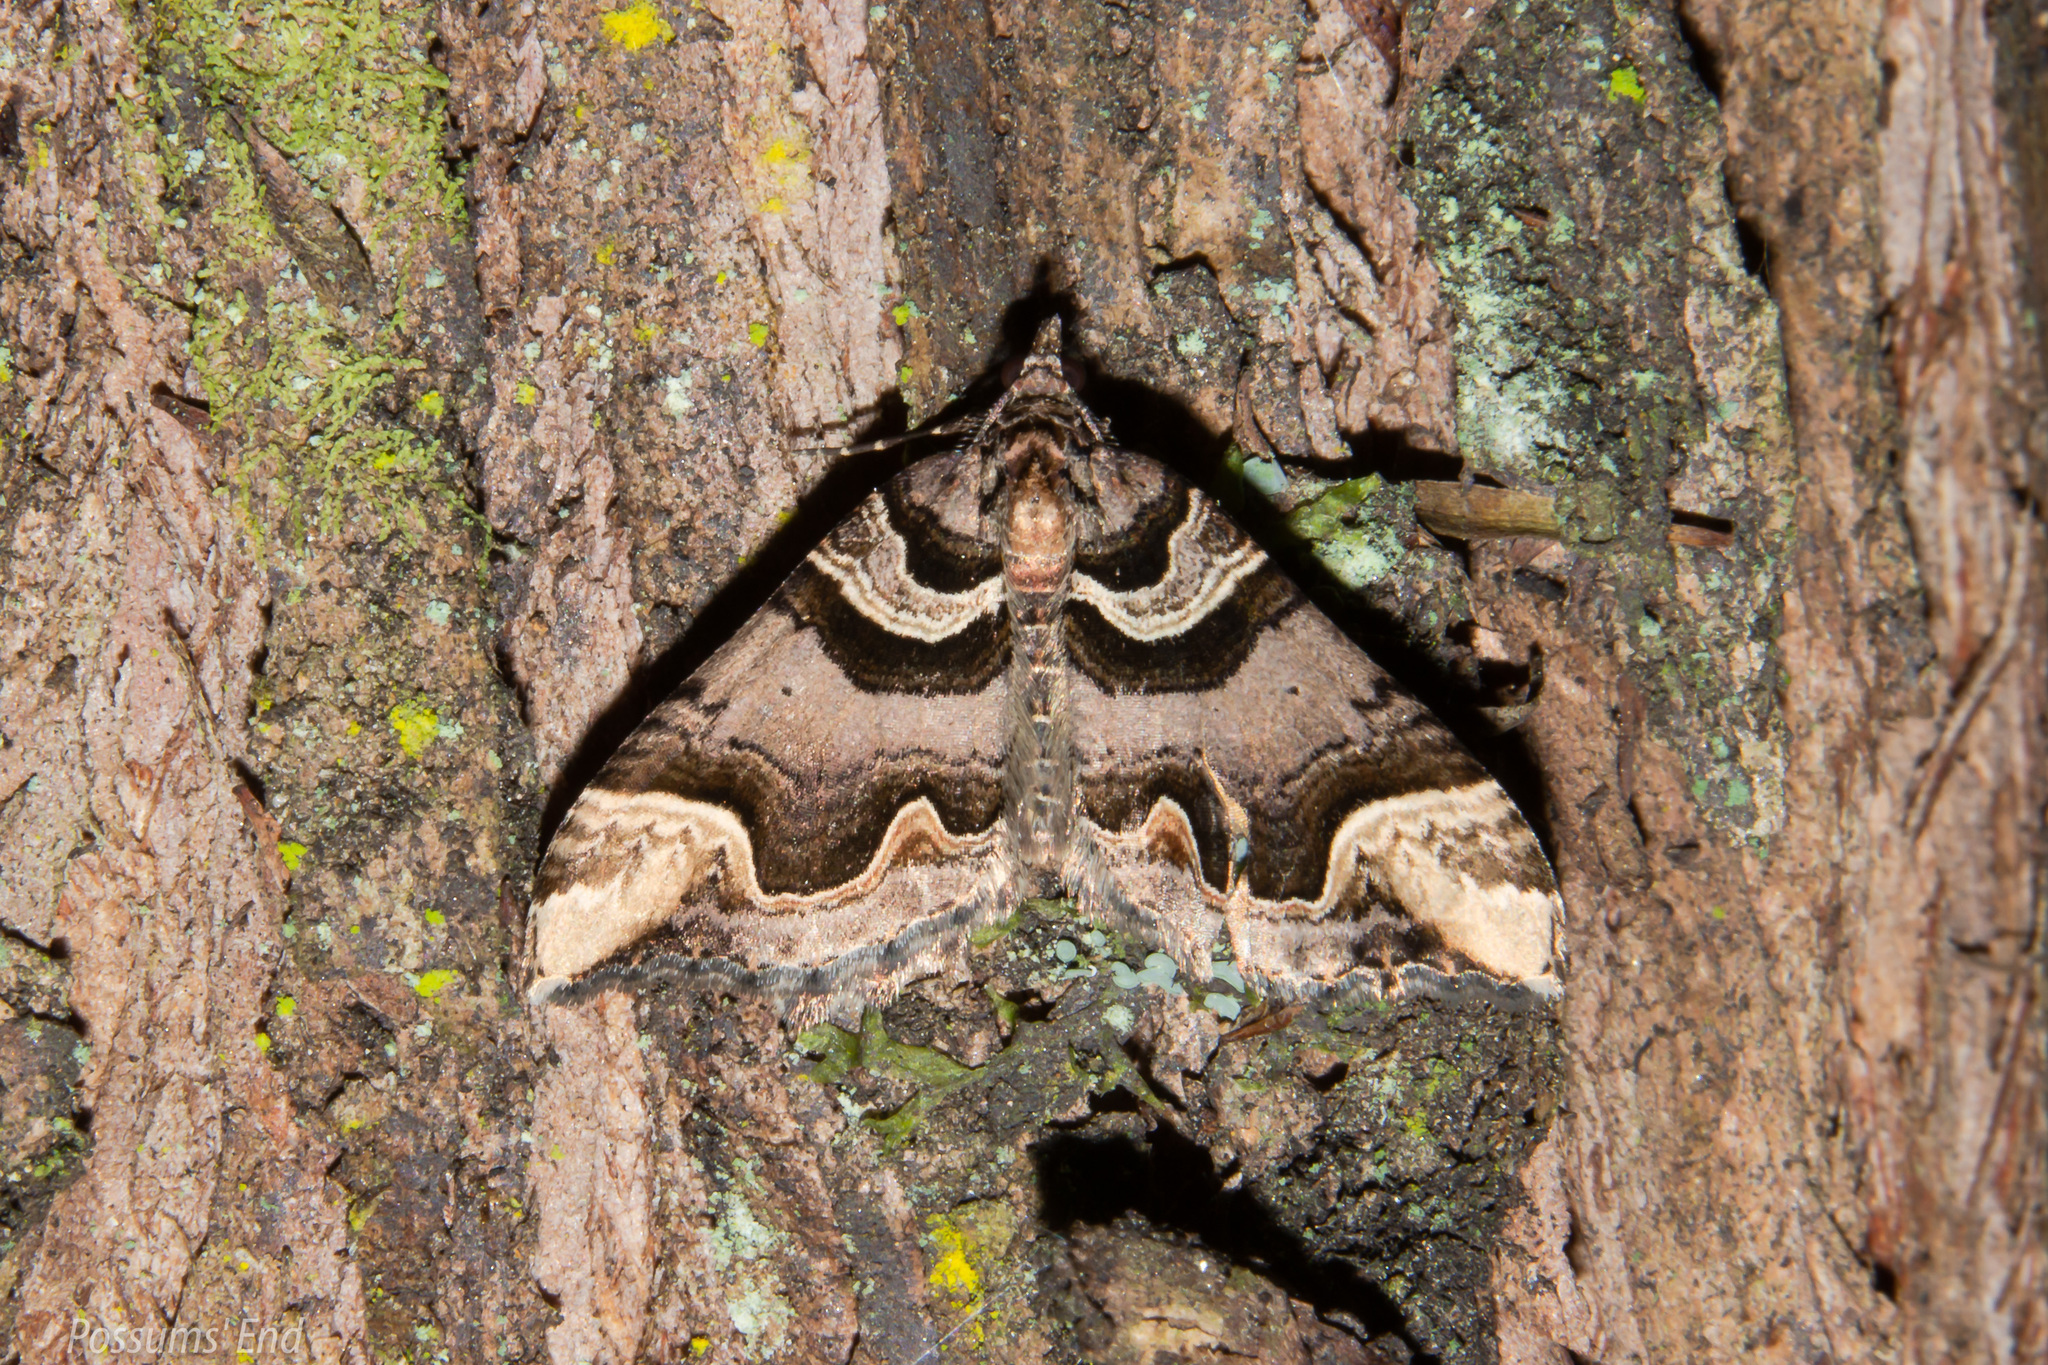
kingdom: Animalia
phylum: Arthropoda
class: Insecta
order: Lepidoptera
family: Geometridae
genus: Asaphodes
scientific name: Asaphodes chlamydota
